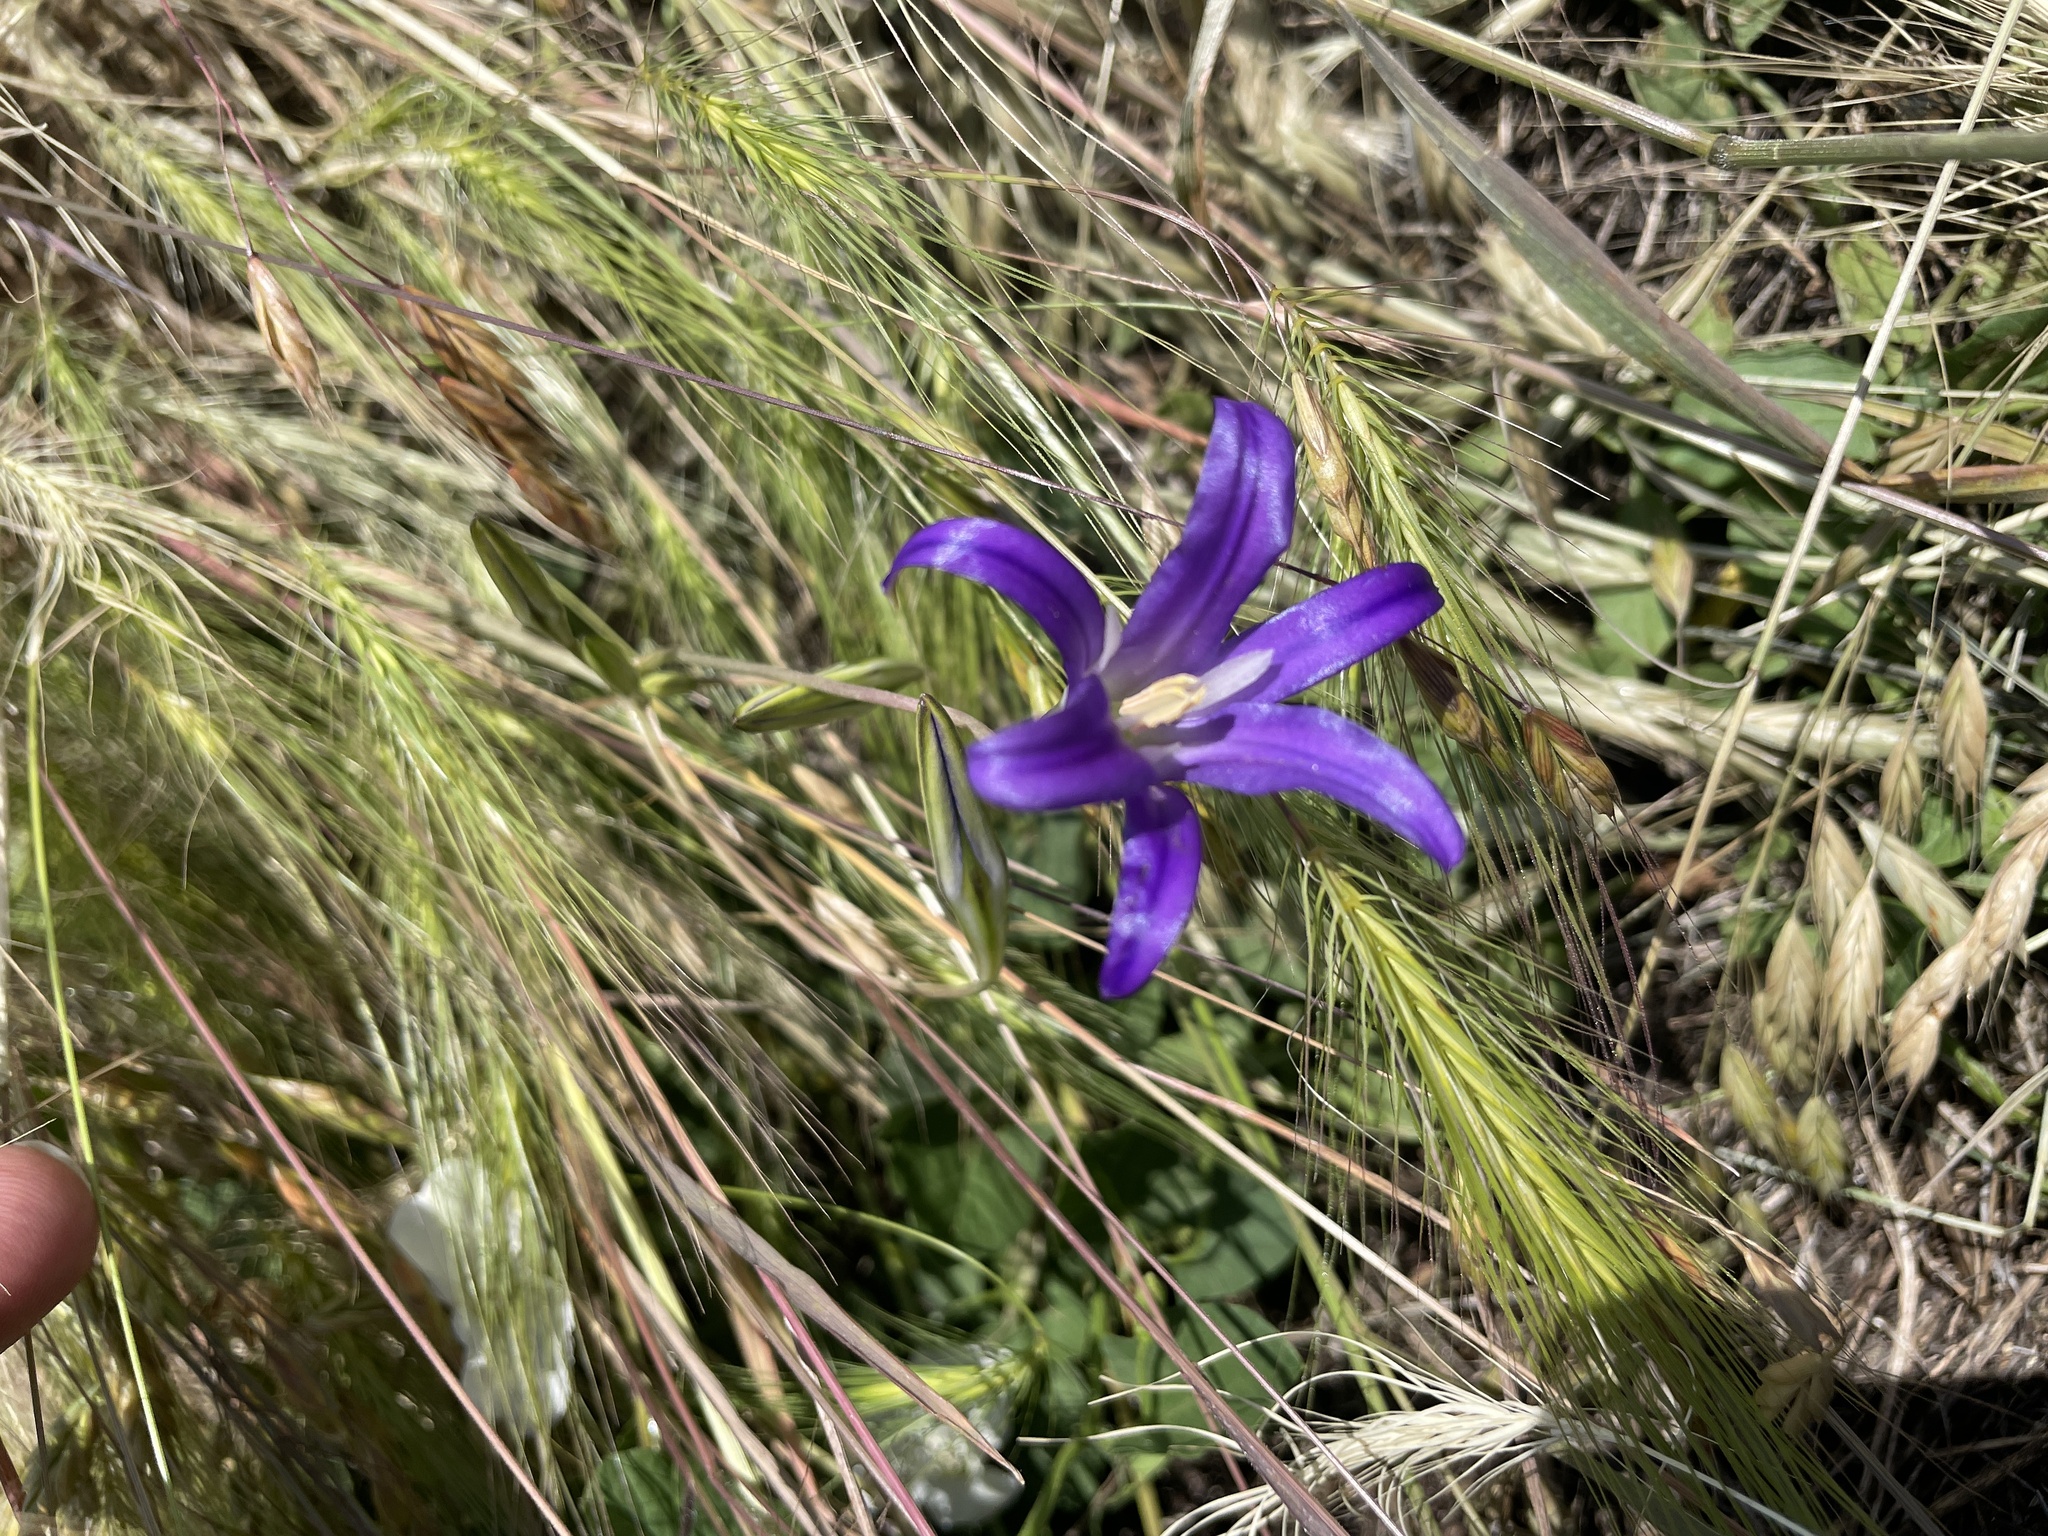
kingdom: Plantae
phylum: Tracheophyta
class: Liliopsida
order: Asparagales
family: Asparagaceae
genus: Brodiaea
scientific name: Brodiaea elegans
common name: Elegant cluster-lily
